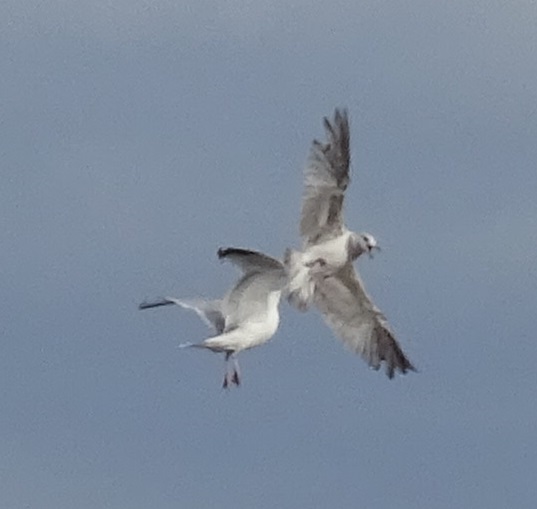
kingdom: Animalia
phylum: Chordata
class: Aves
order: Charadriiformes
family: Laridae
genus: Larus
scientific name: Larus argentatus
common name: Herring gull
